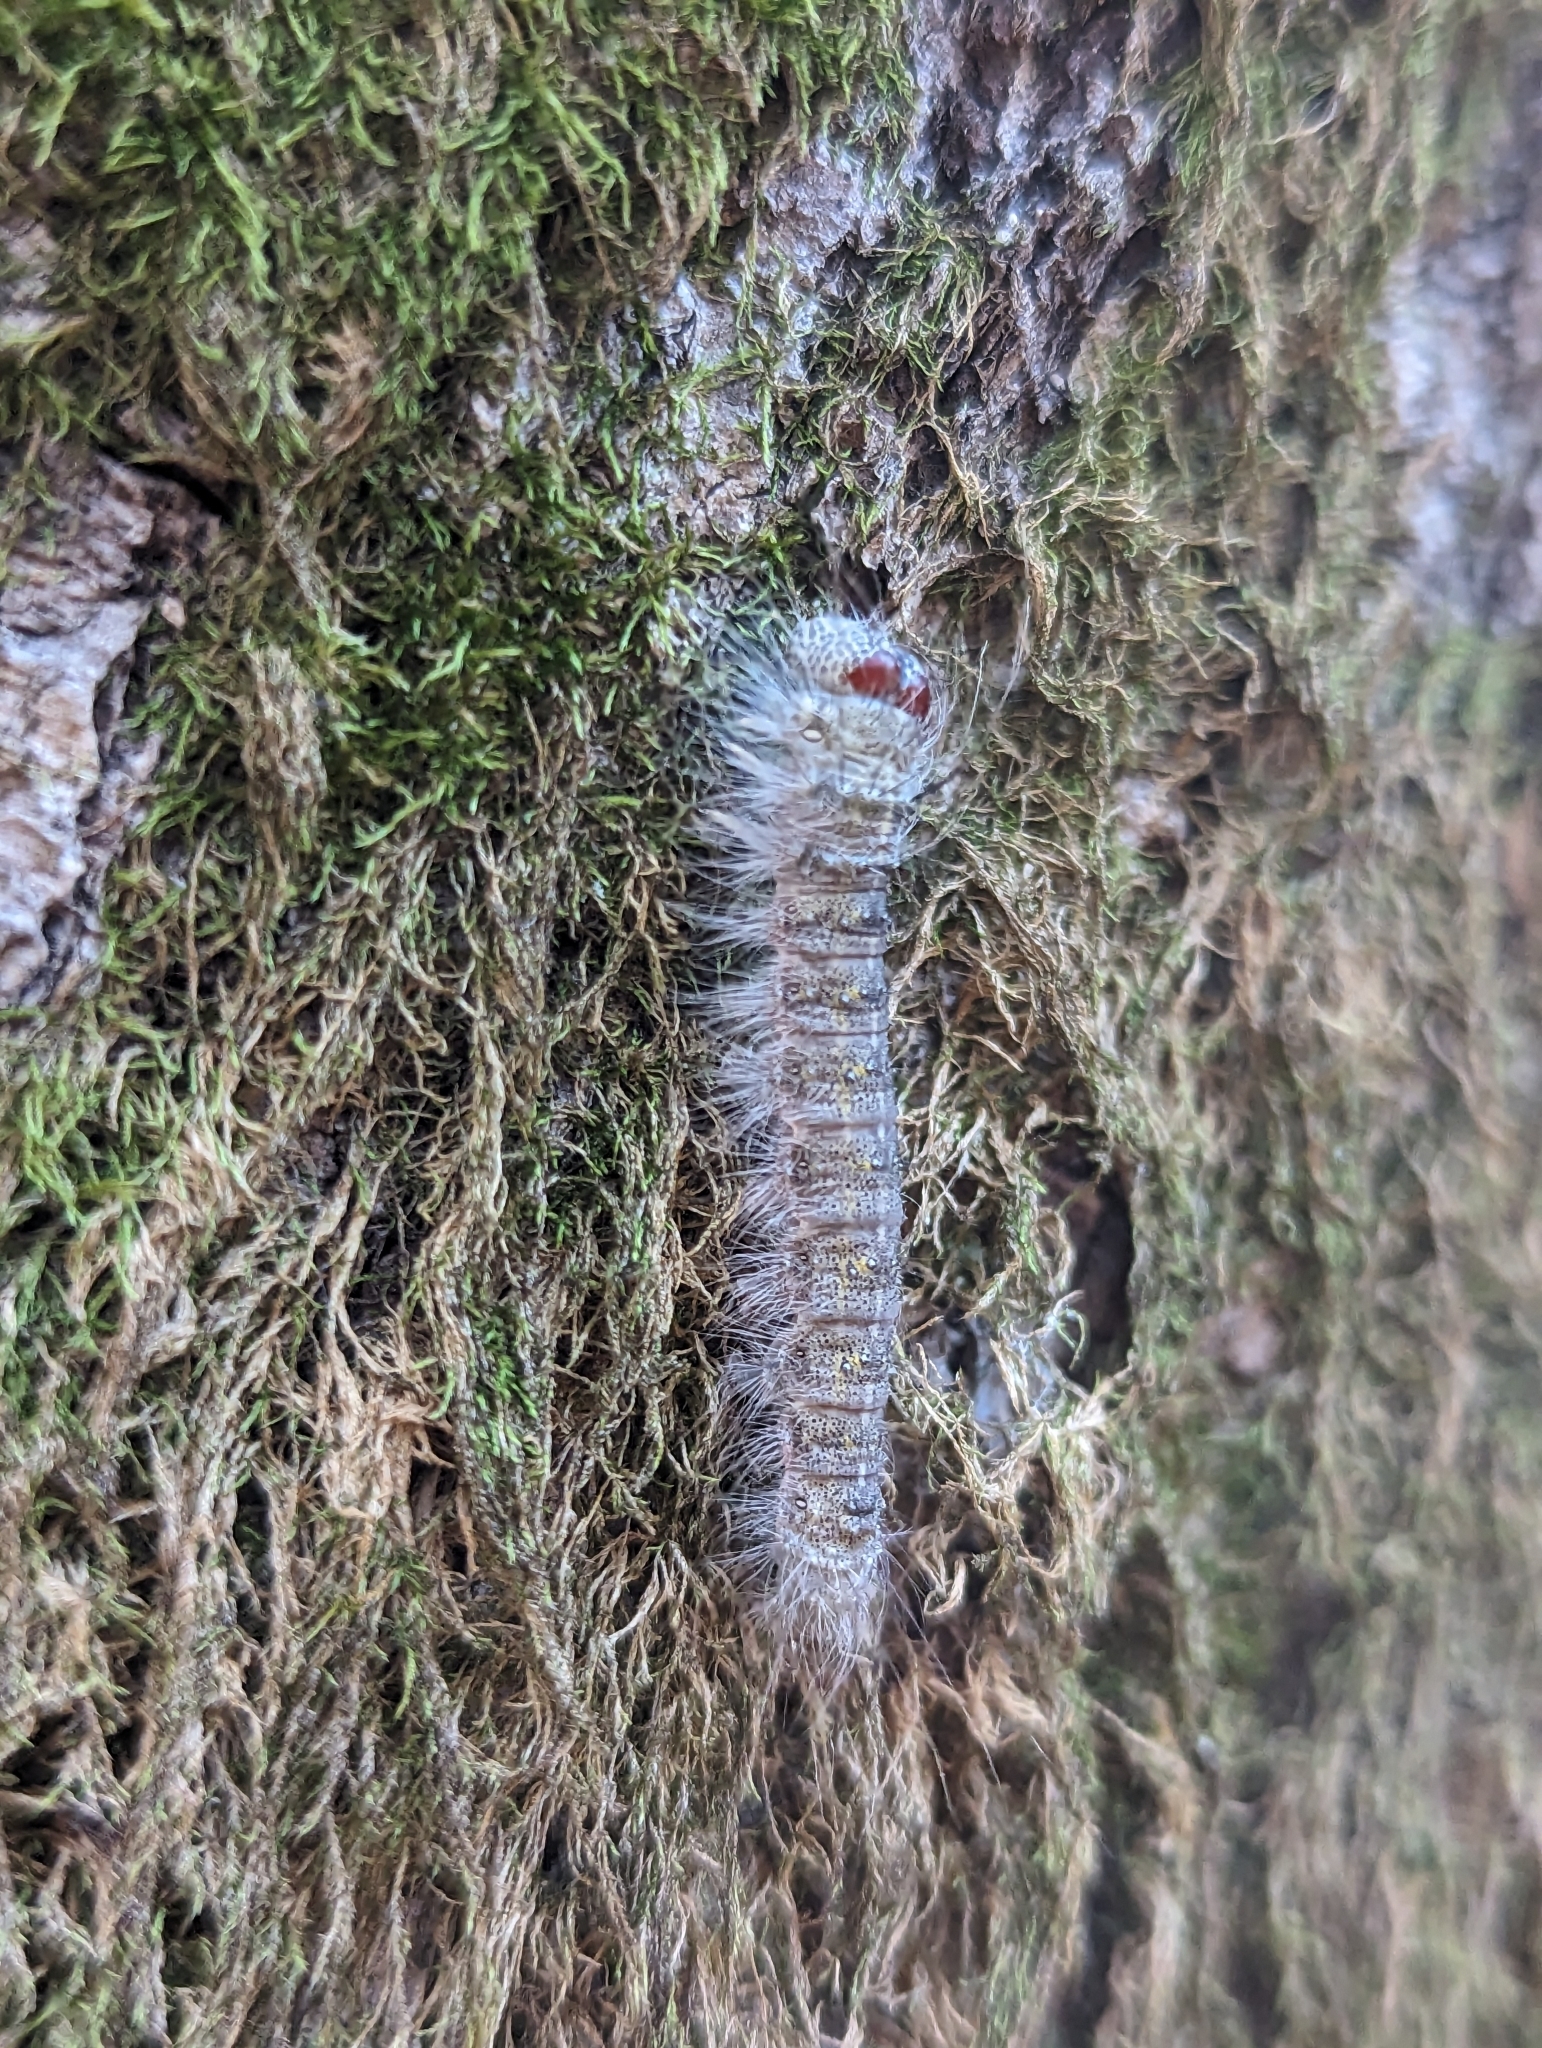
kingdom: Animalia
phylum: Arthropoda
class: Insecta
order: Lepidoptera
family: Noctuidae
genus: Acronicta
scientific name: Acronicta lobeliae
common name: Greater oak dagger
